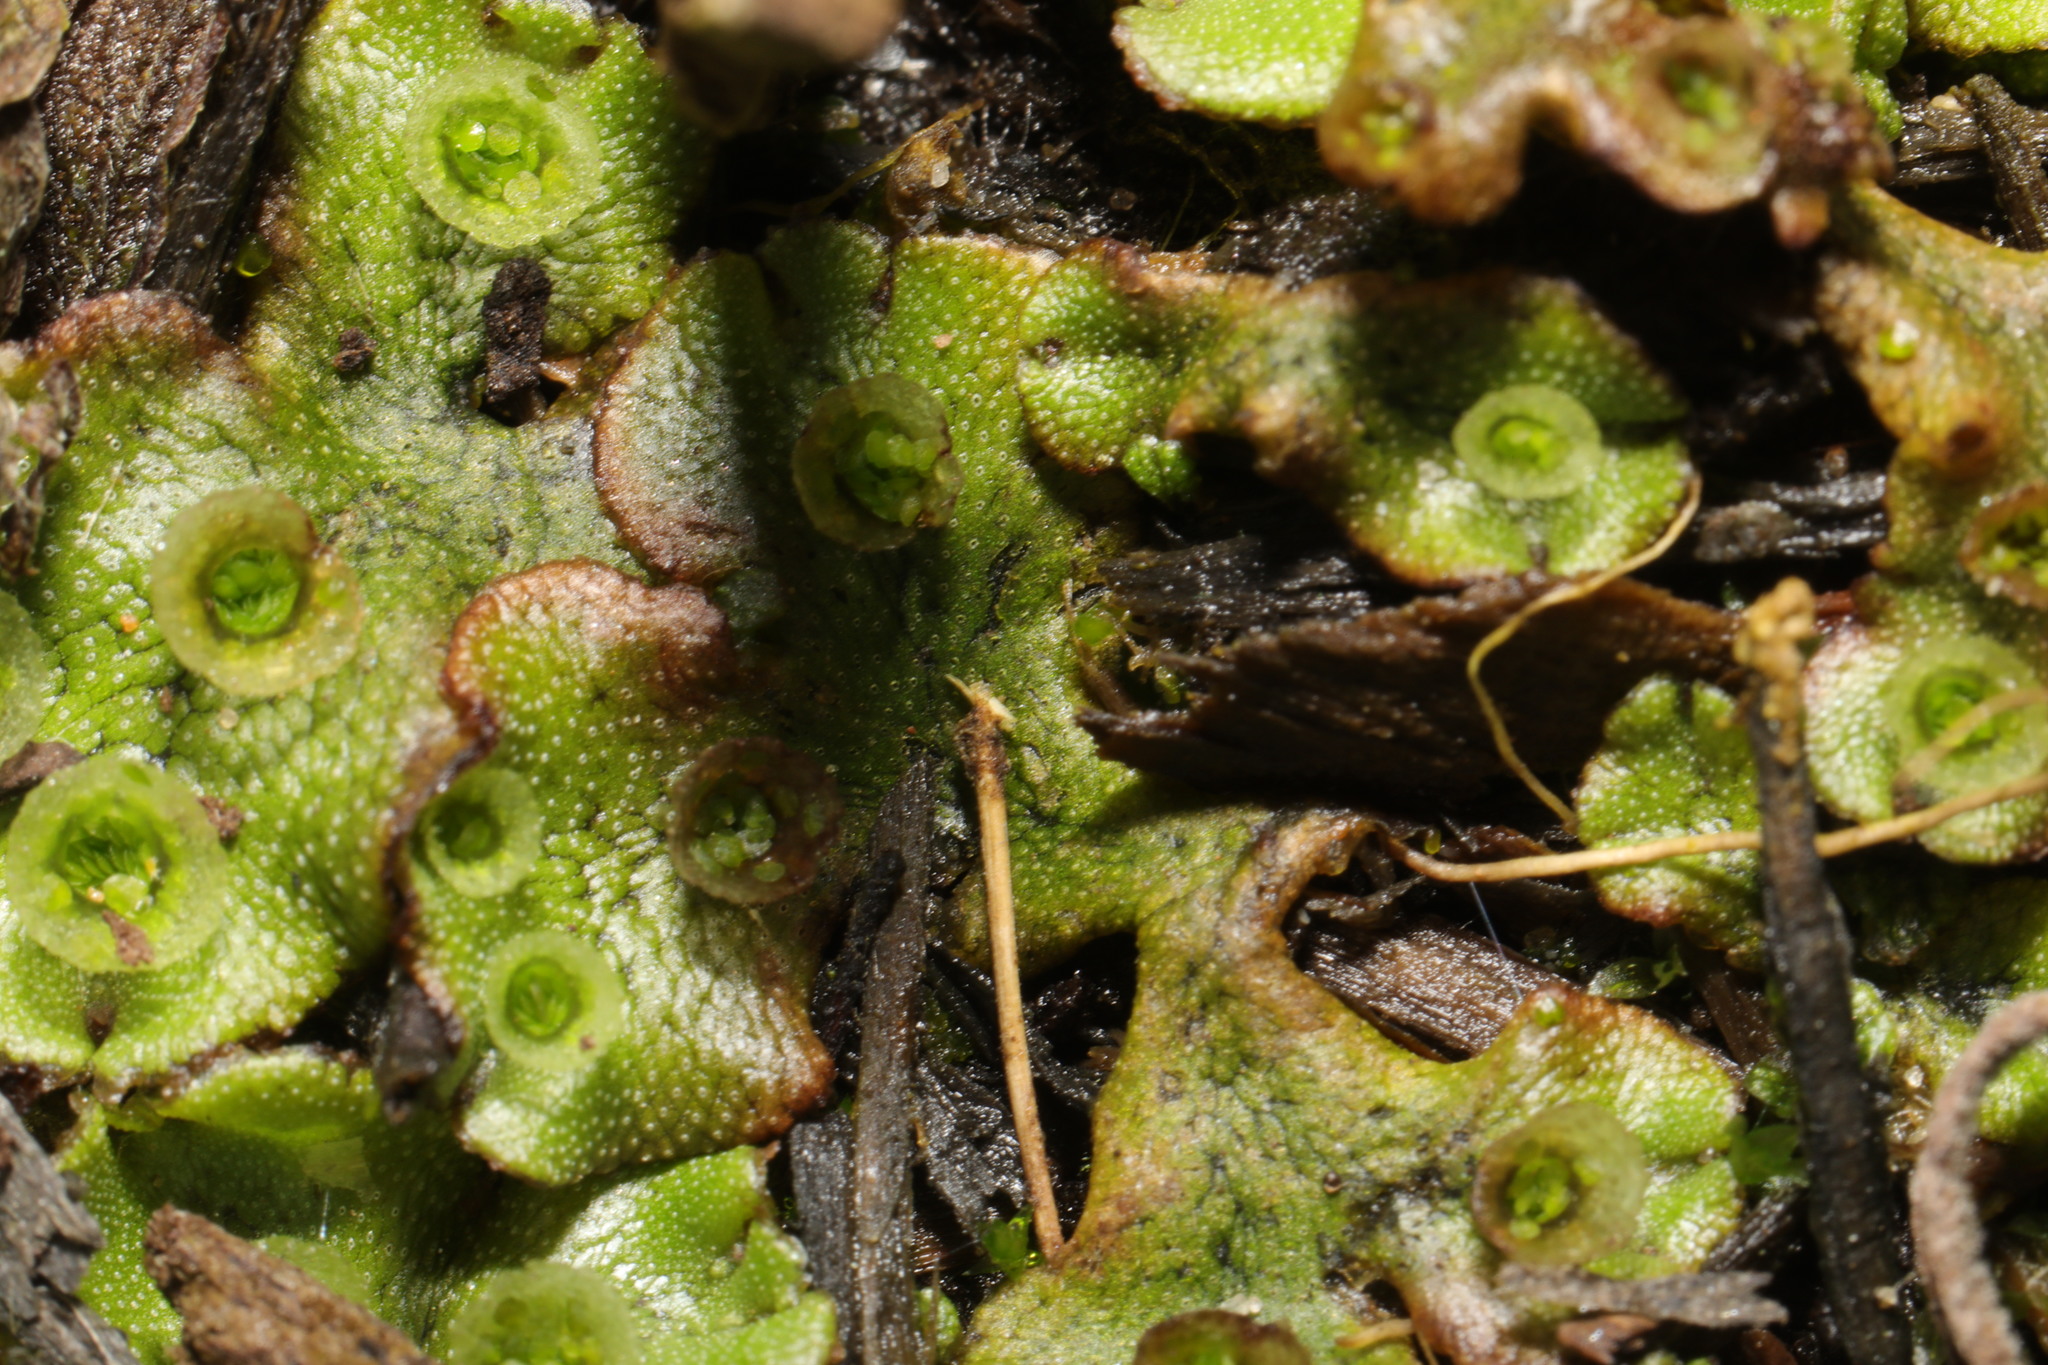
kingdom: Plantae
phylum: Marchantiophyta
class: Marchantiopsida
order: Marchantiales
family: Marchantiaceae
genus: Marchantia
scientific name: Marchantia polymorpha
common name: Common liverwort
